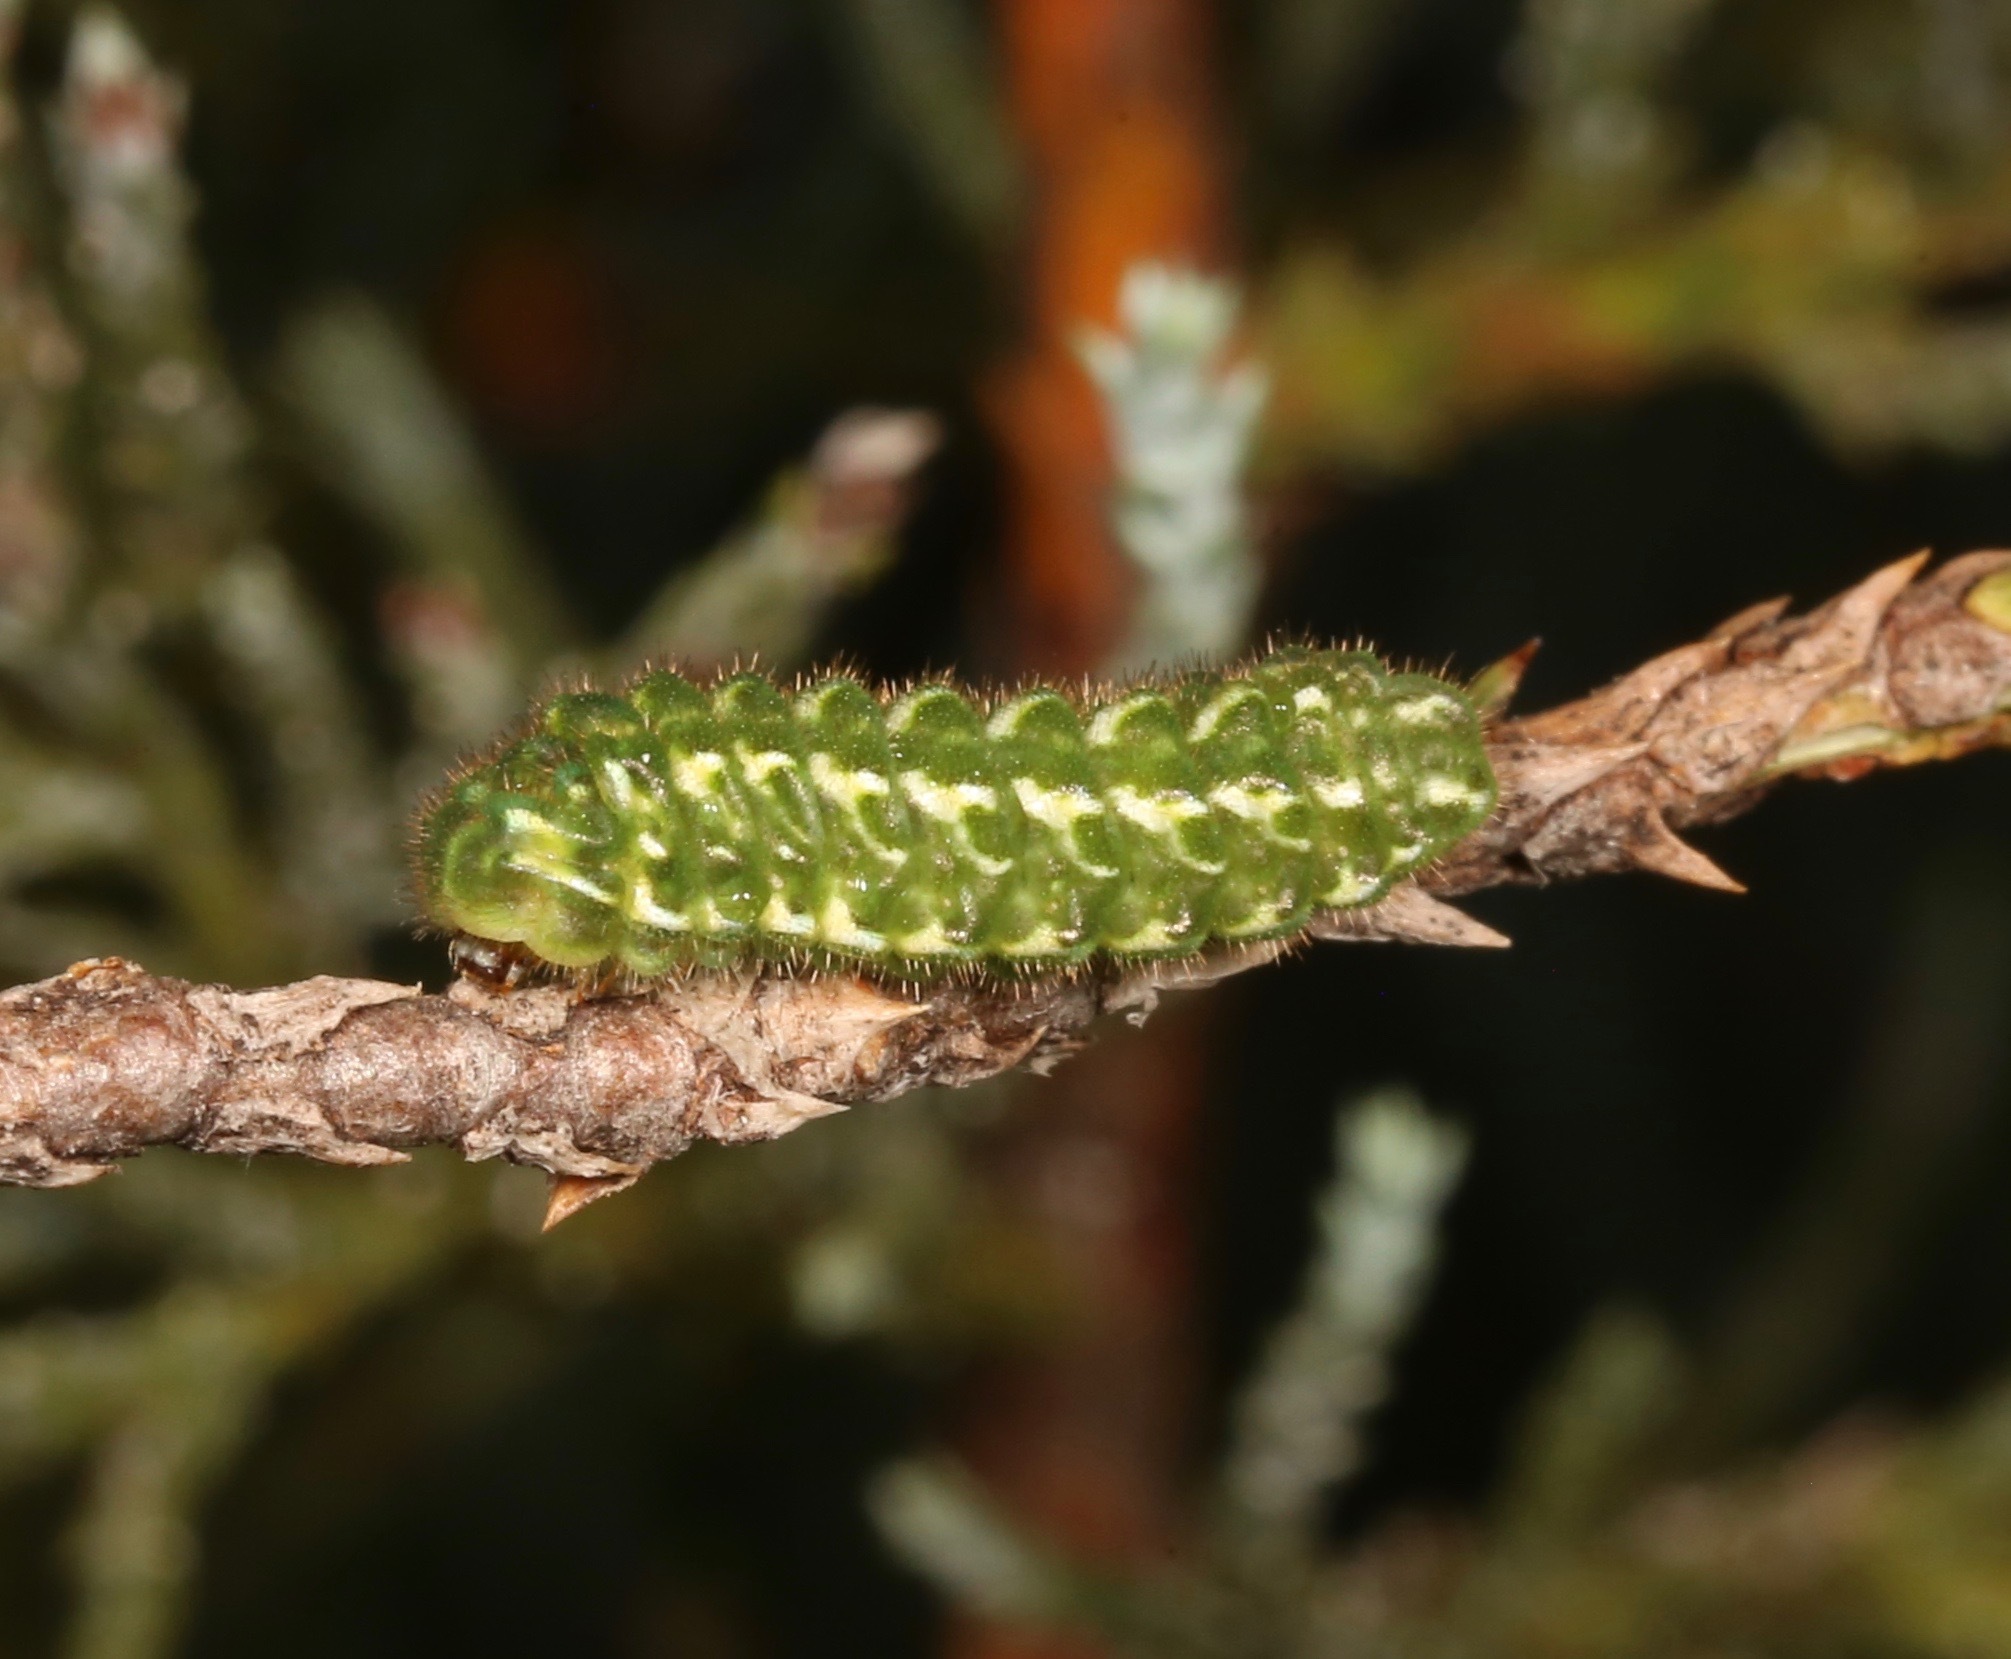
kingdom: Animalia
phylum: Arthropoda
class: Insecta
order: Lepidoptera
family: Lycaenidae
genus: Mitoura
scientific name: Mitoura gryneus
